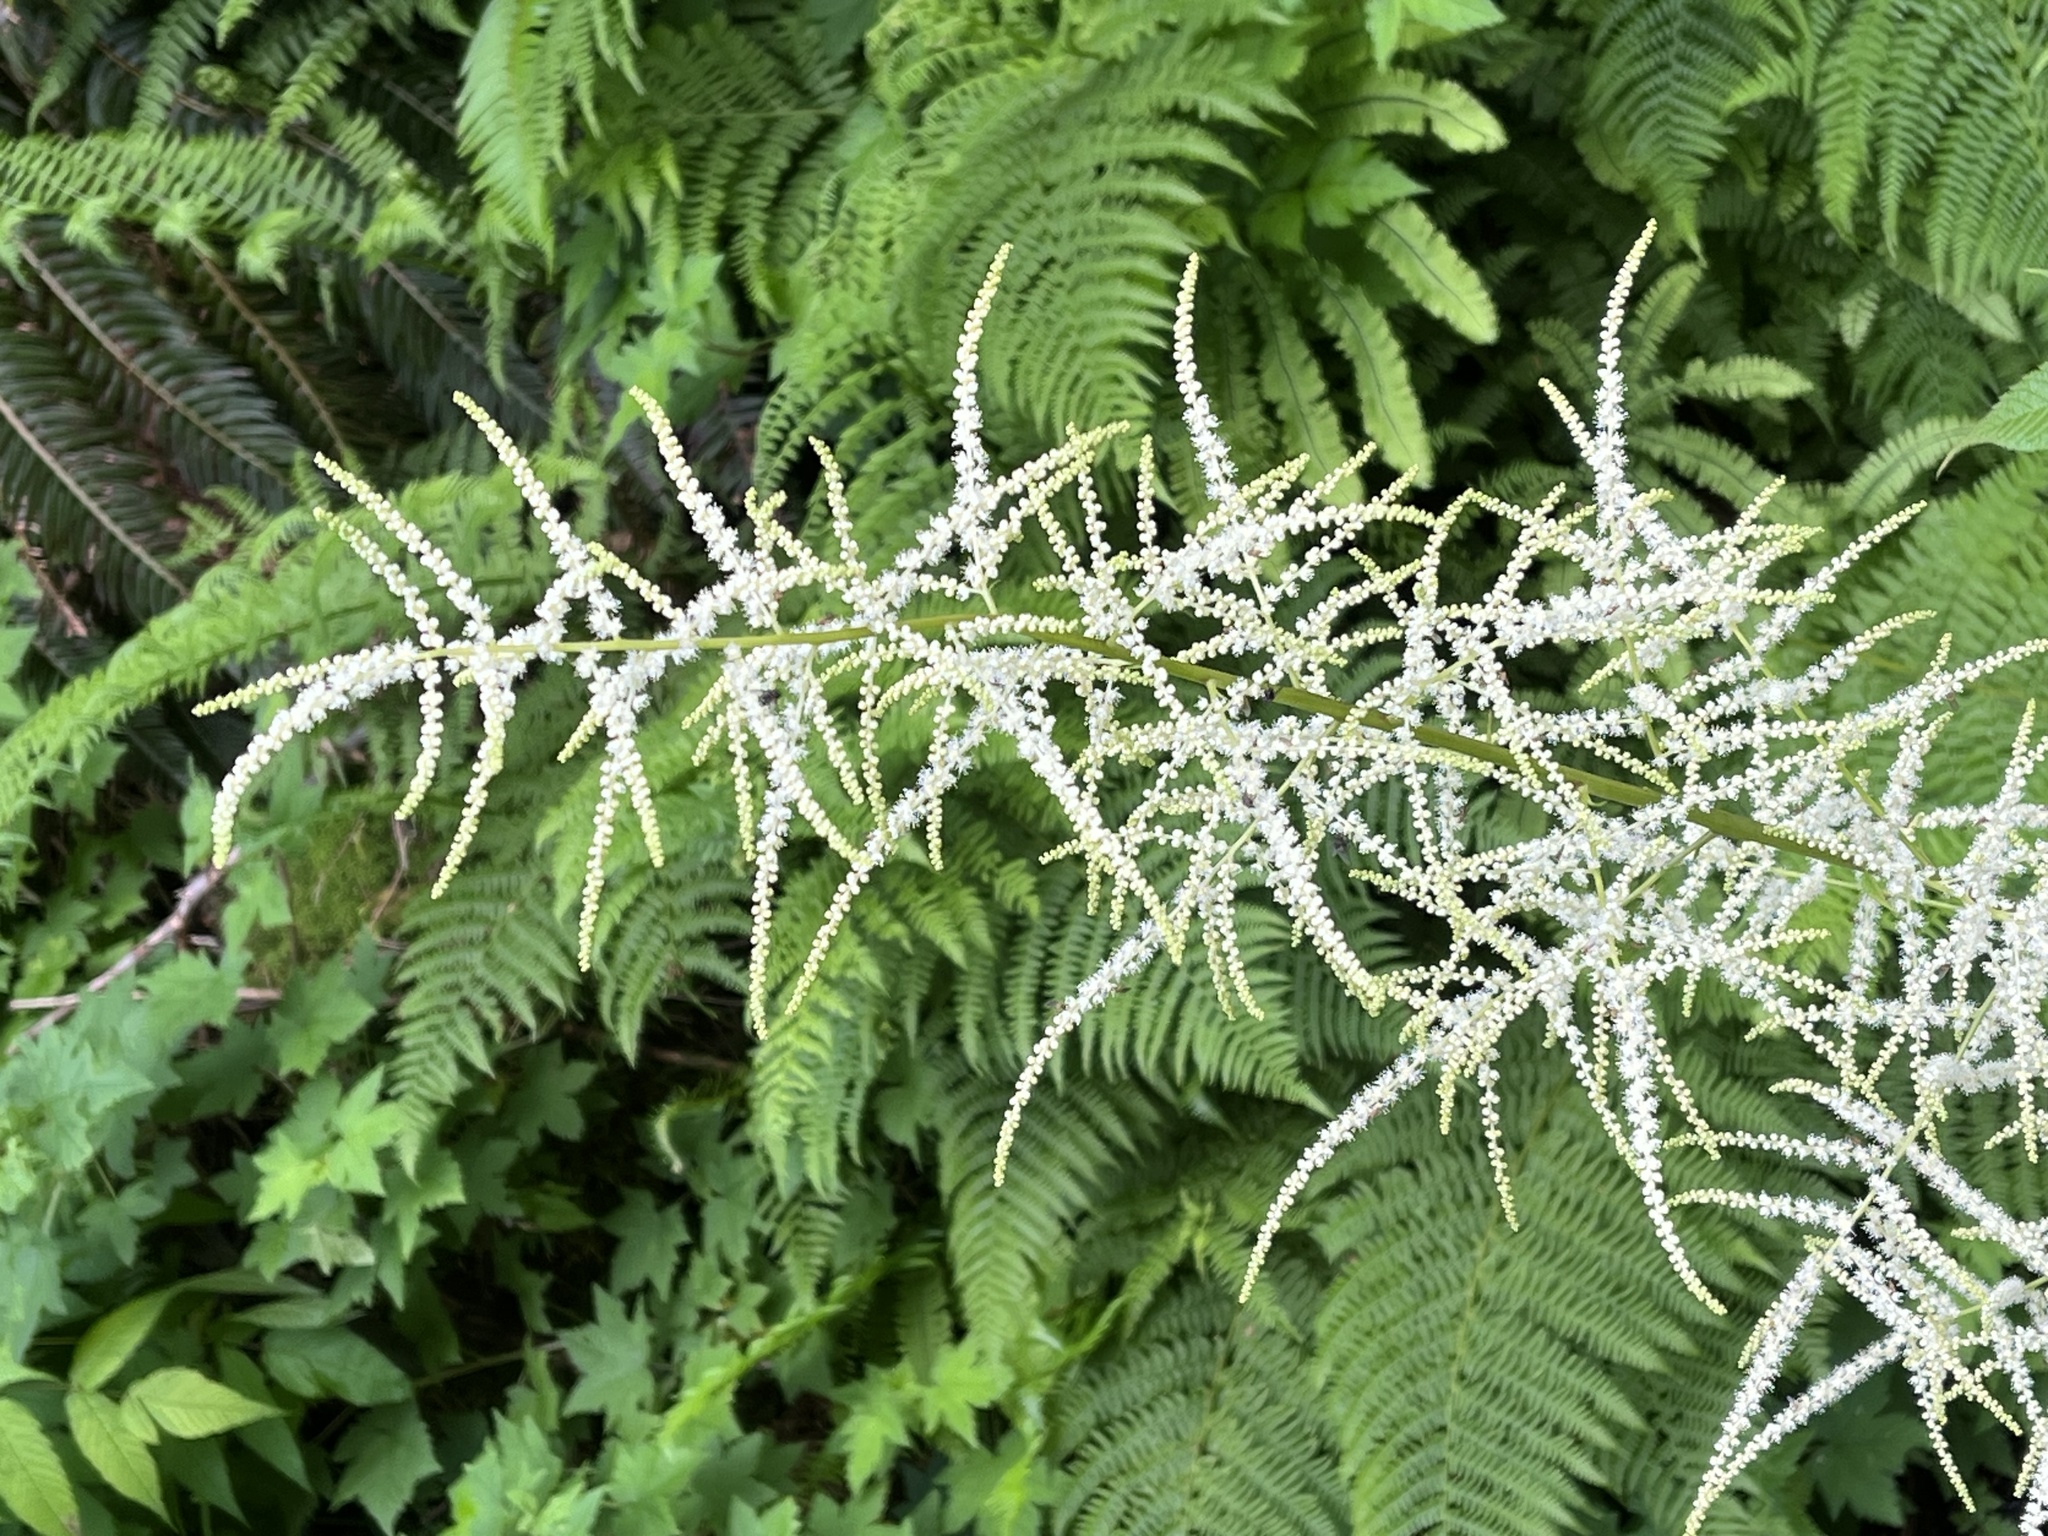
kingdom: Plantae
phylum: Tracheophyta
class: Magnoliopsida
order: Rosales
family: Rosaceae
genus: Aruncus
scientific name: Aruncus dioicus
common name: Buck's-beard
